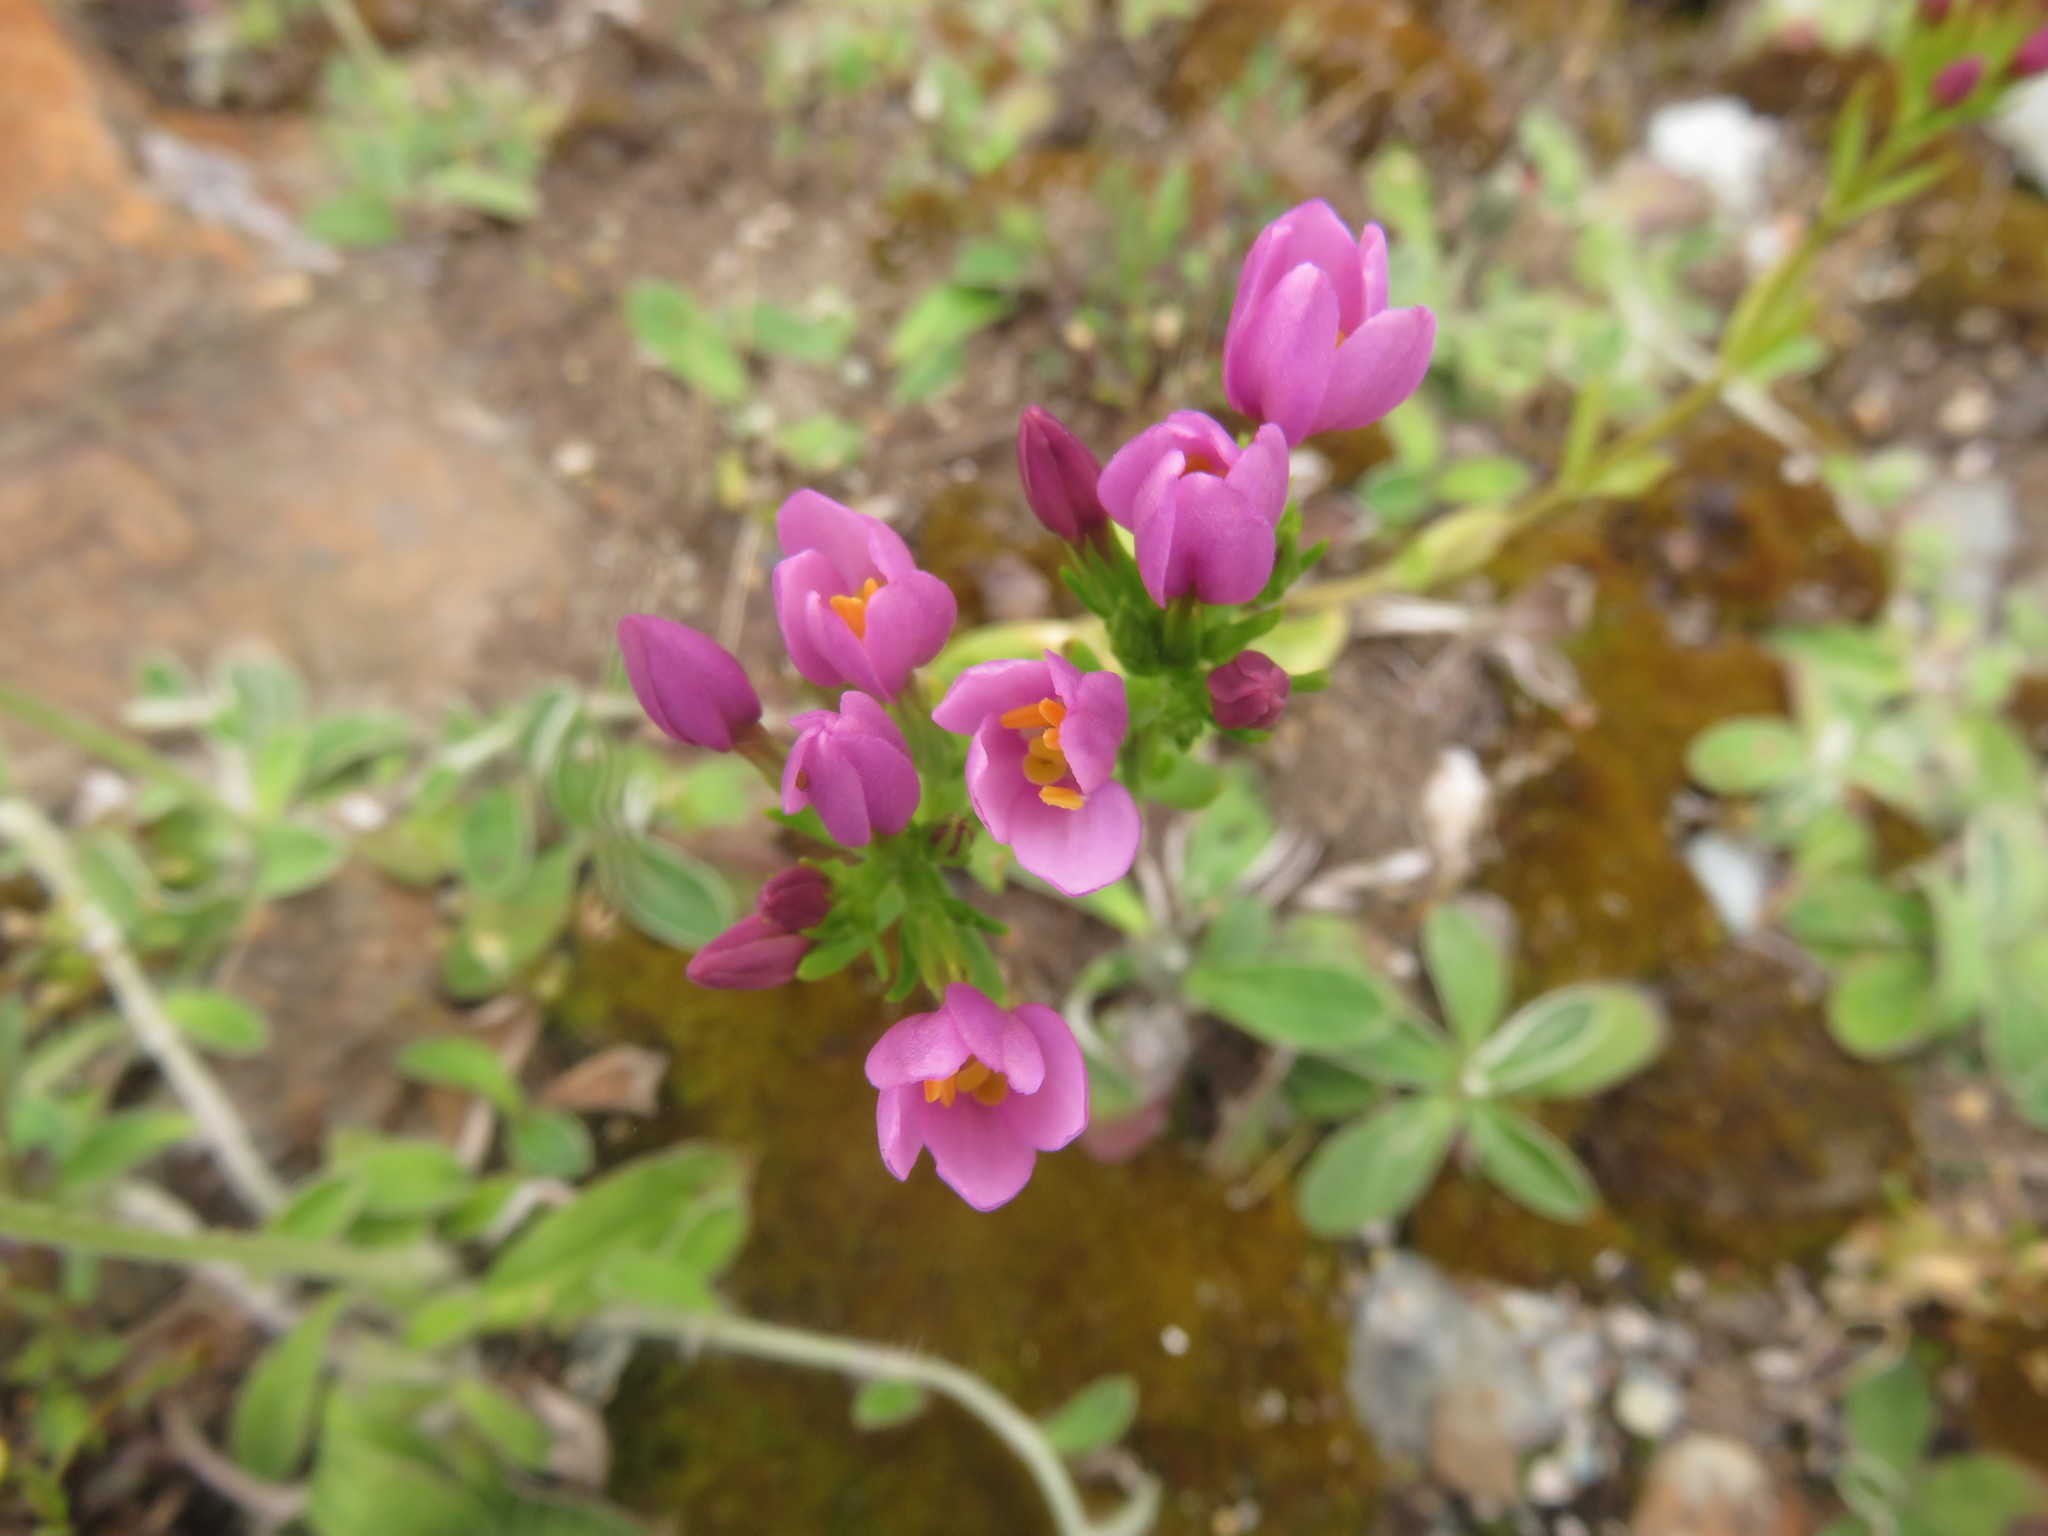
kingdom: Plantae
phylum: Tracheophyta
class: Magnoliopsida
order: Gentianales
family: Gentianaceae
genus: Centaurium
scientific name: Centaurium erythraea
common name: Common centaury
